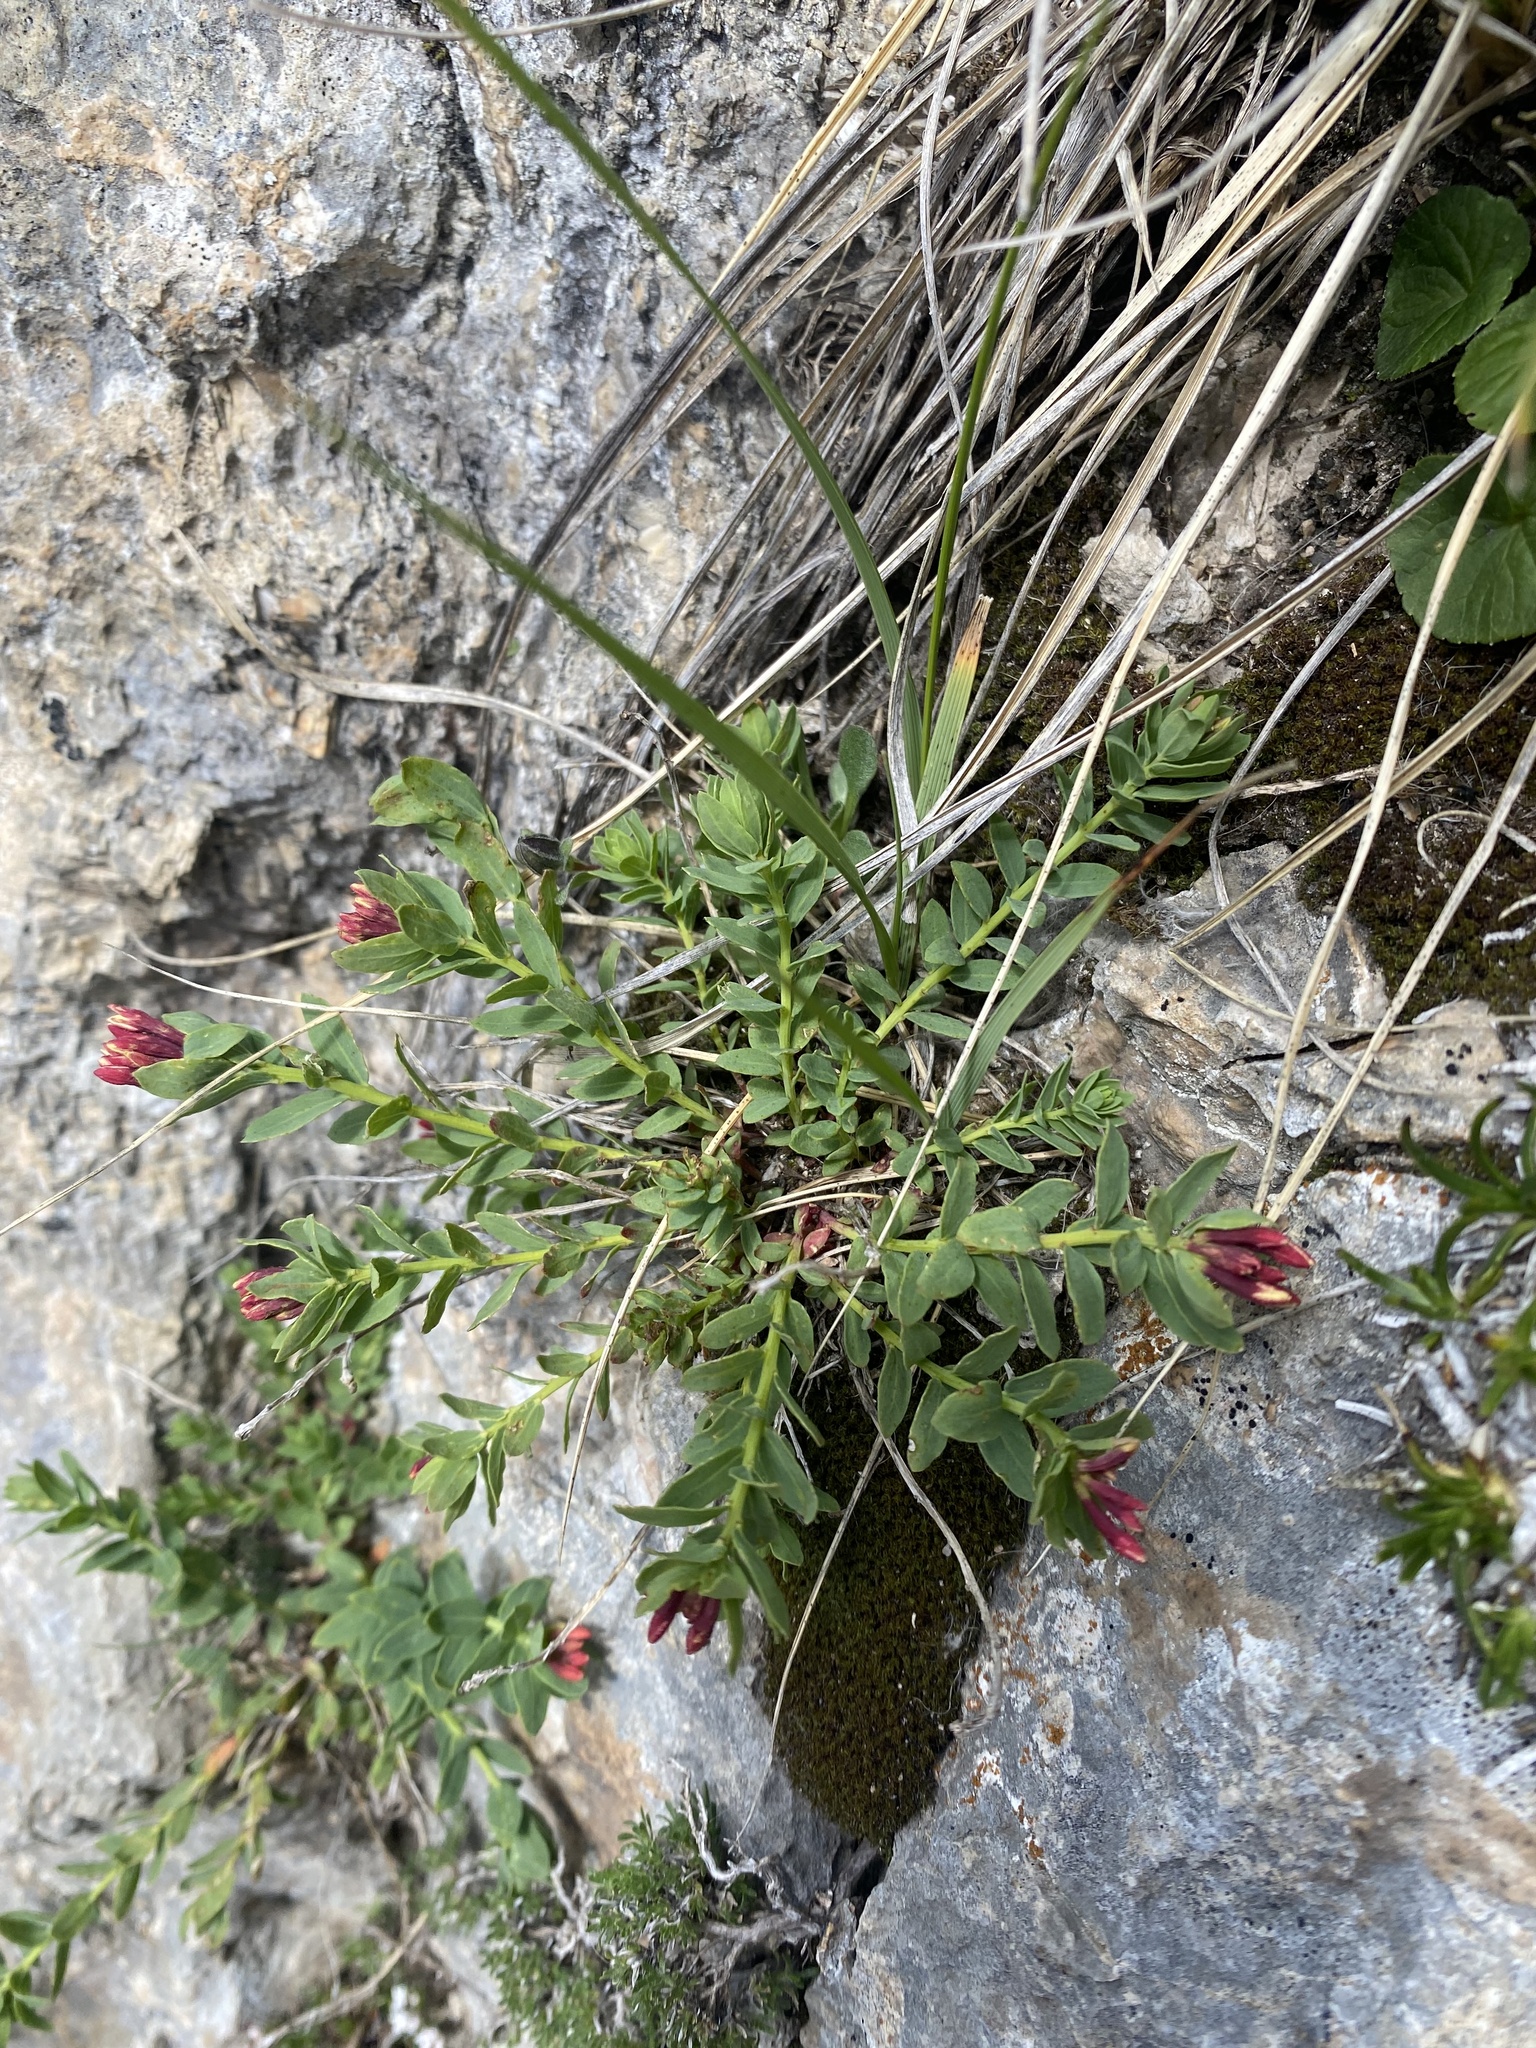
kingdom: Plantae
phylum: Tracheophyta
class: Magnoliopsida
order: Malvales
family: Thymelaeaceae
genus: Diarthron
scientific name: Diarthron caucasicum
